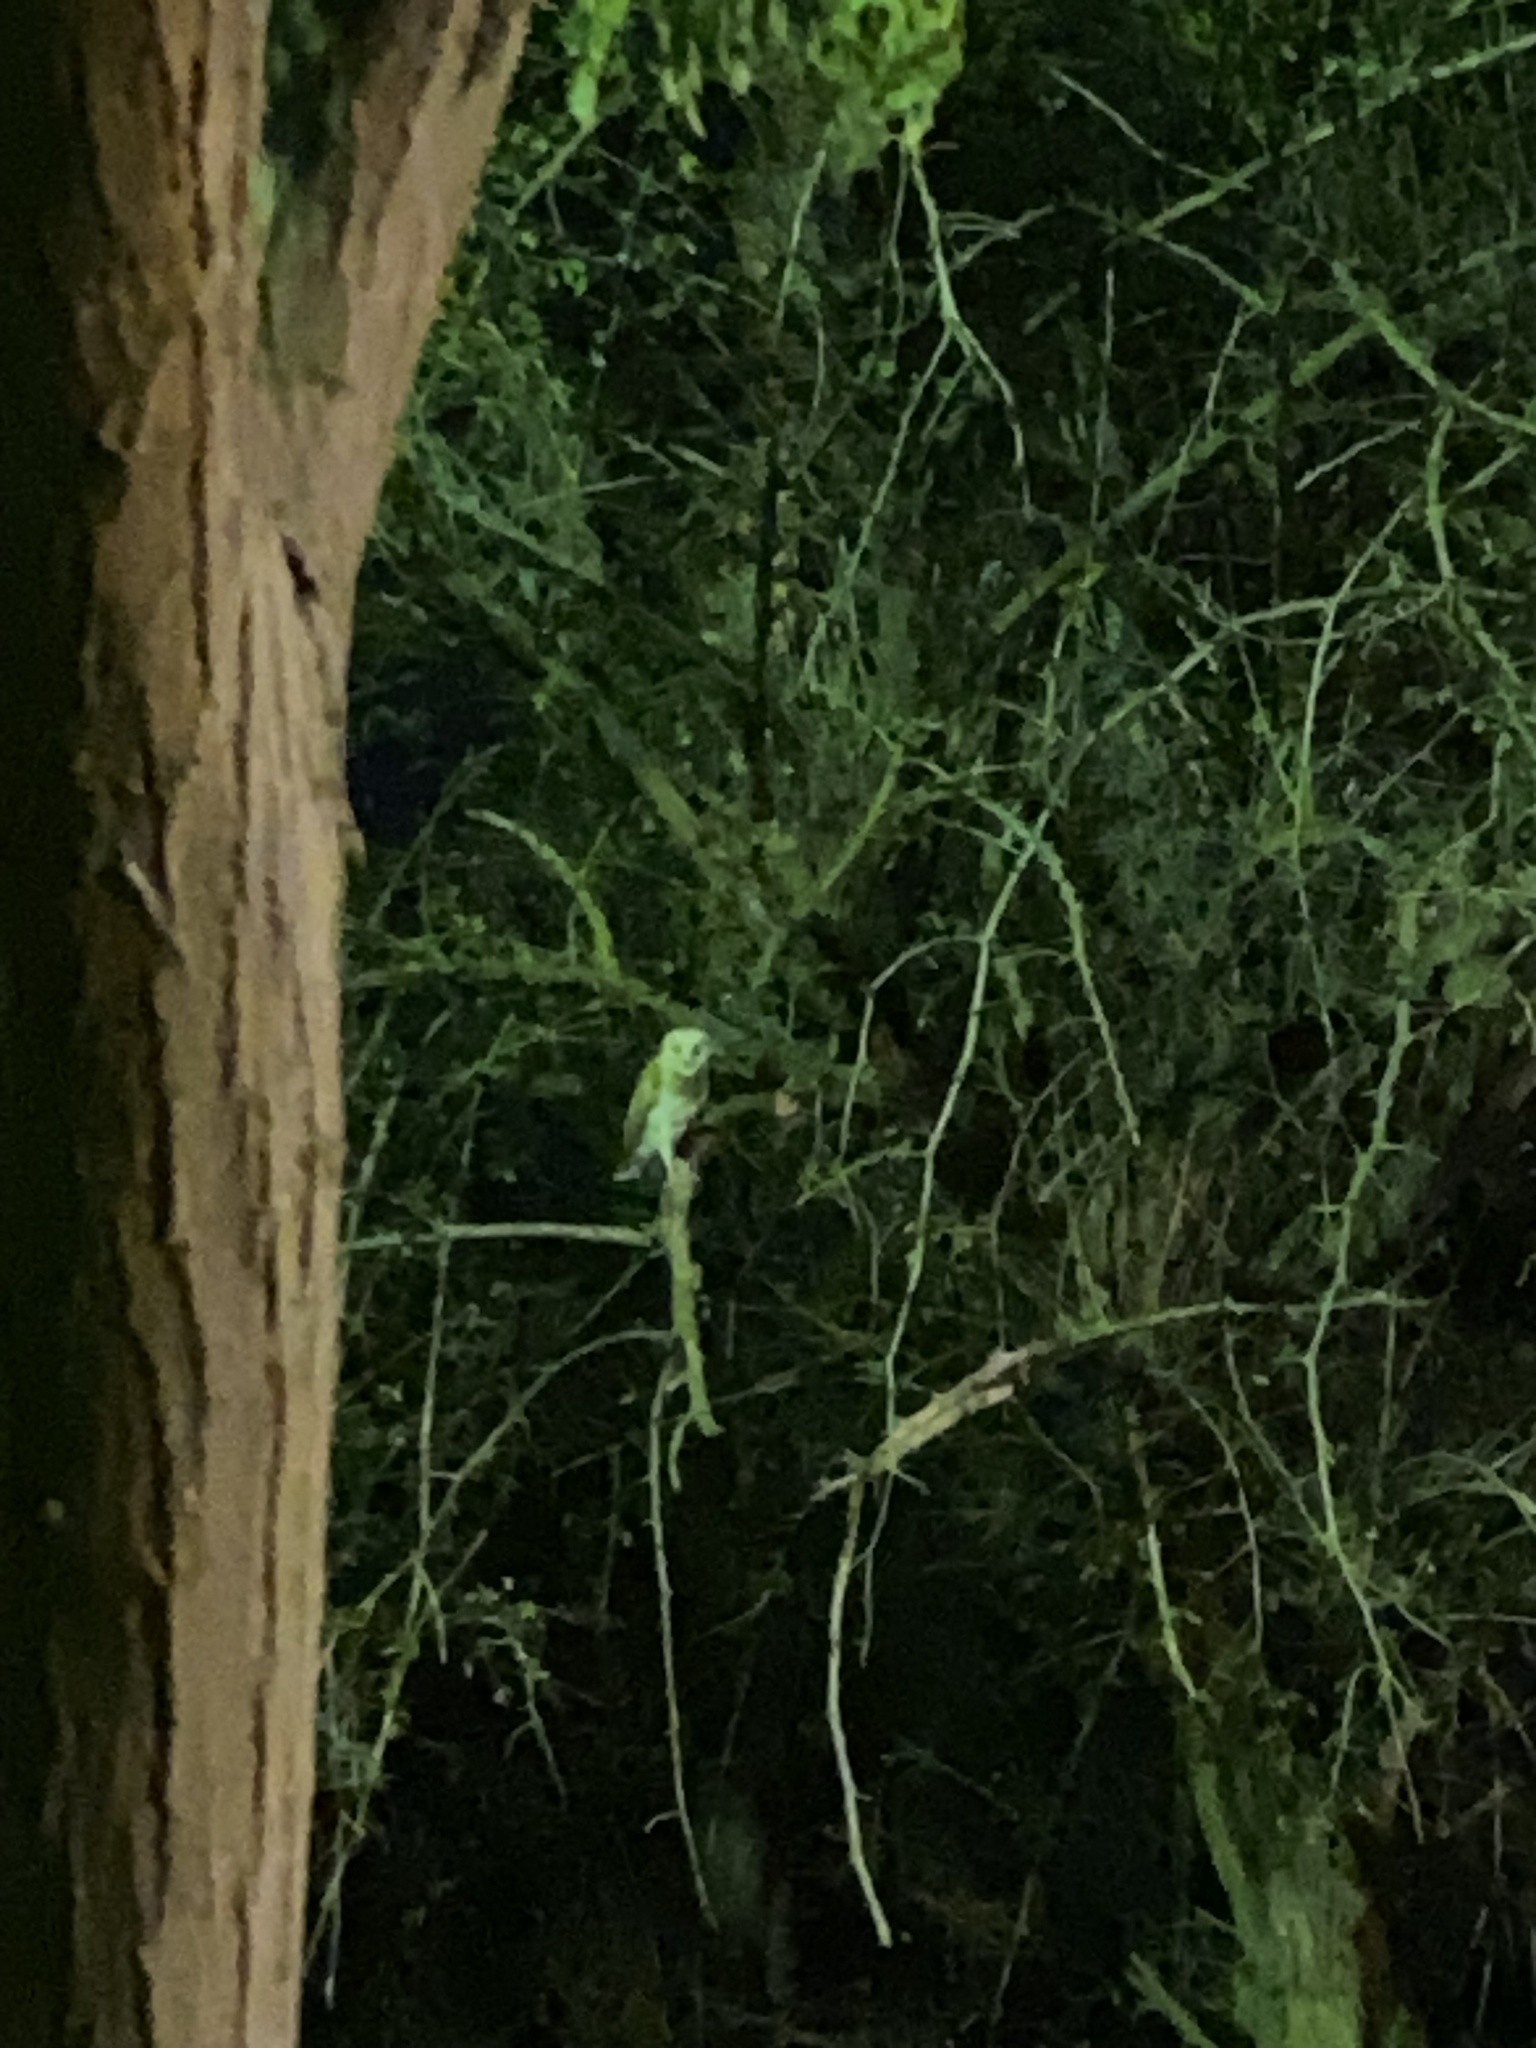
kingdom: Animalia
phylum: Chordata
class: Aves
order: Strigiformes
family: Tytonidae
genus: Tyto
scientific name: Tyto alba
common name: Barn owl
